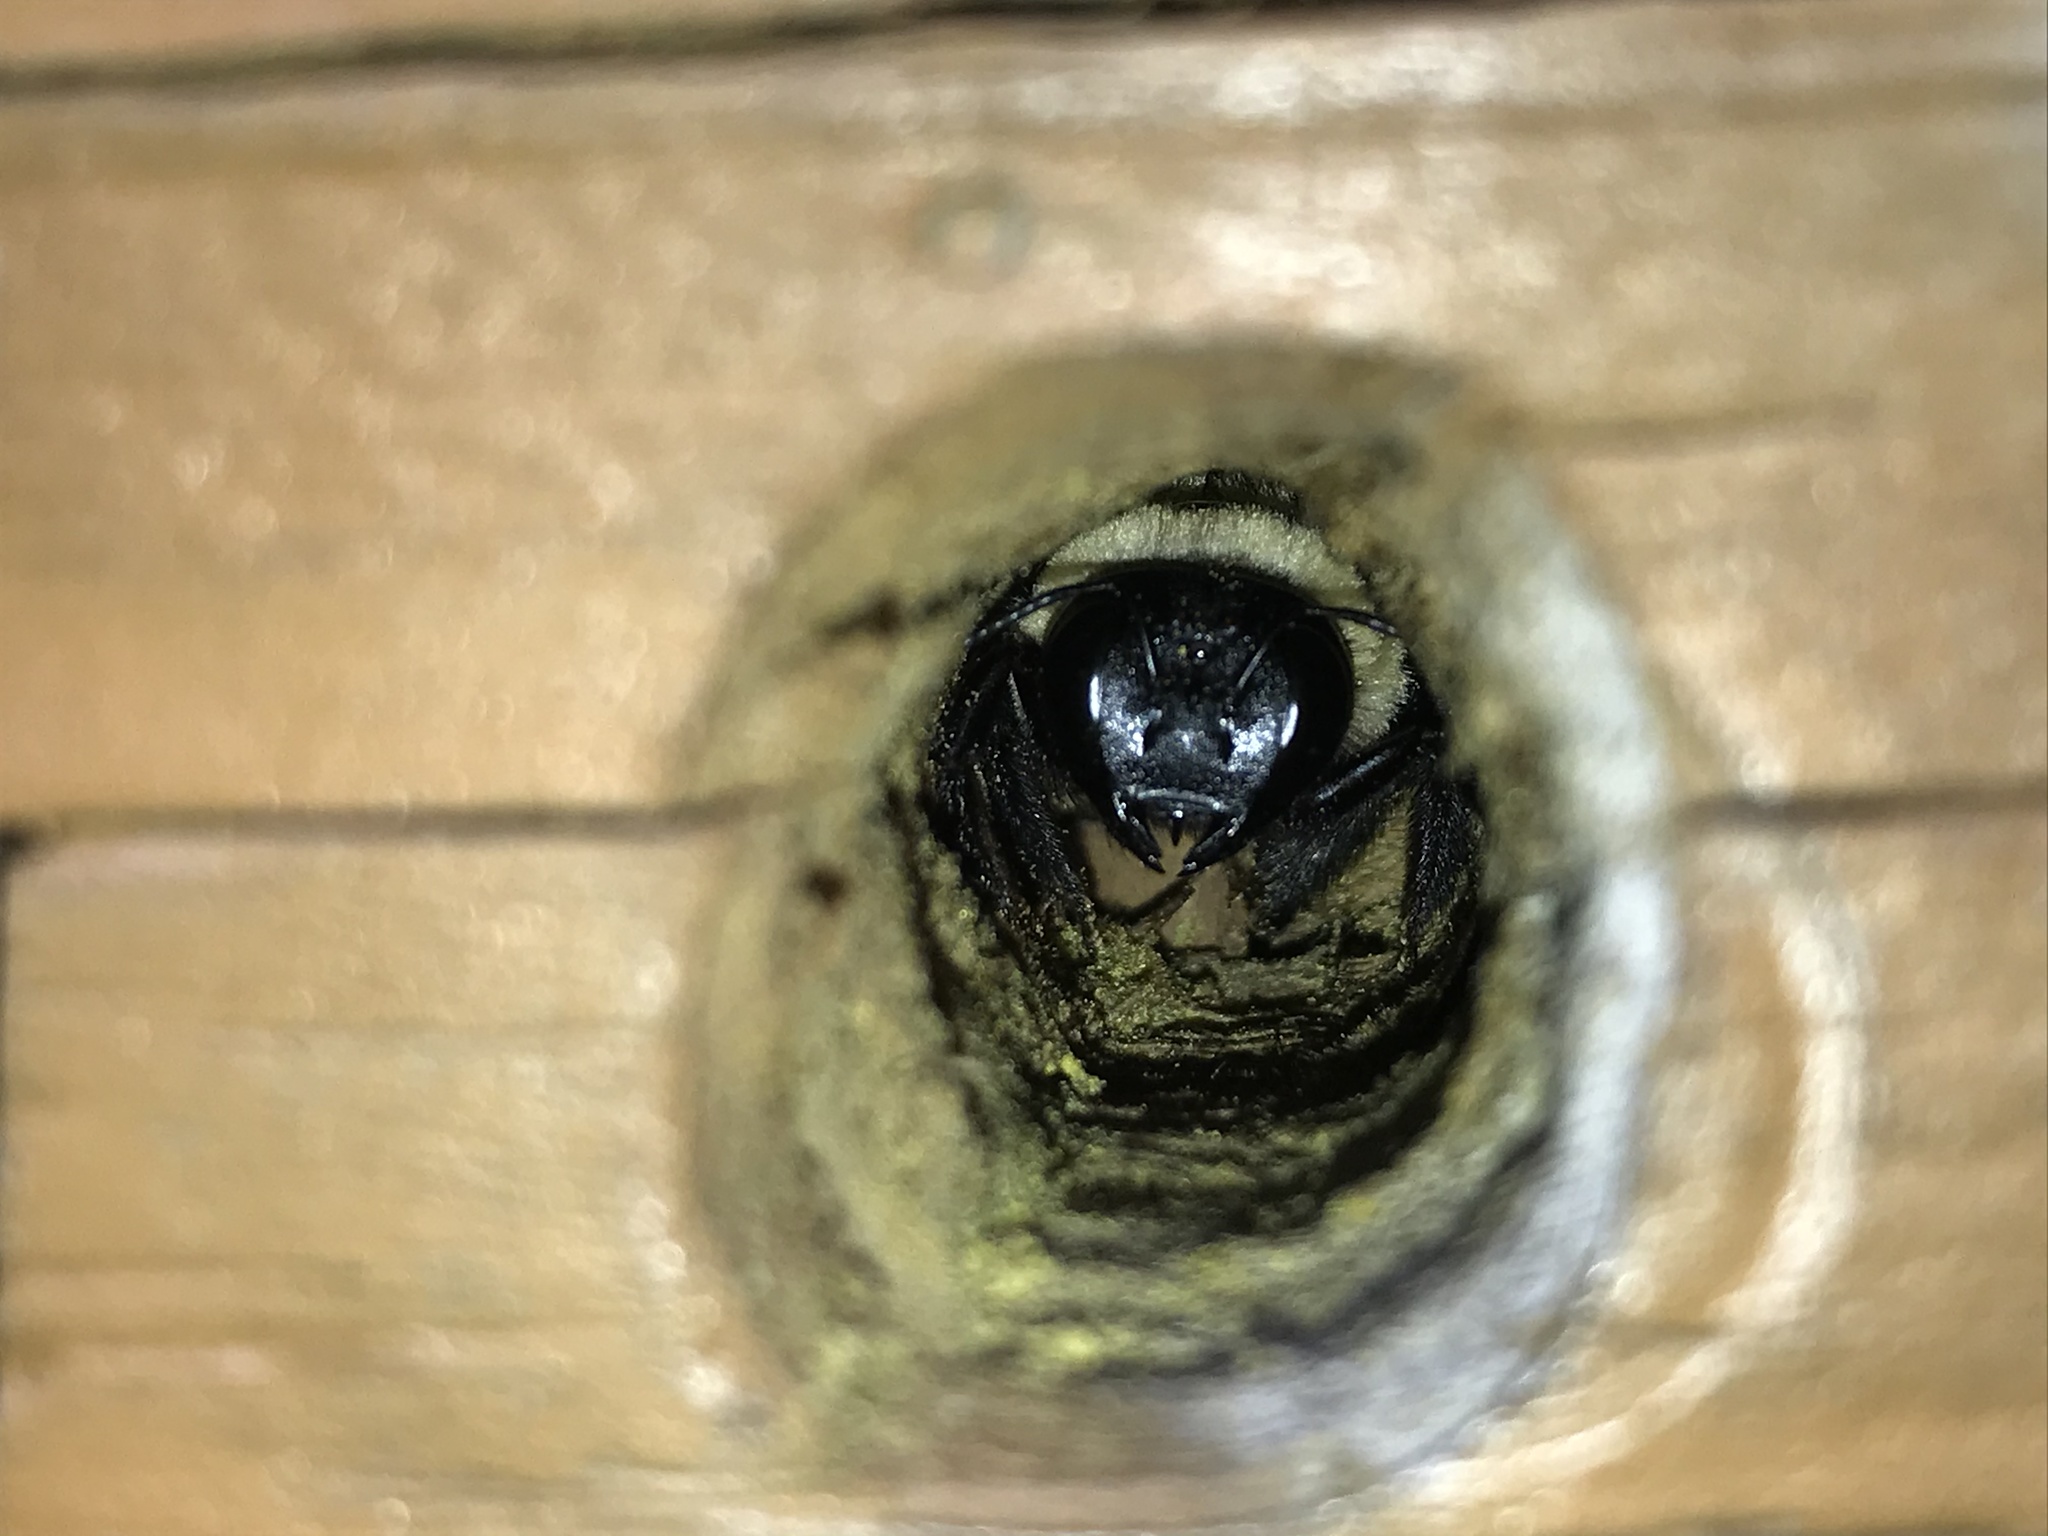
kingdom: Animalia
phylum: Arthropoda
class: Insecta
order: Hymenoptera
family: Apidae
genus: Xylocopa
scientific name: Xylocopa virginica
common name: Carpenter bee
